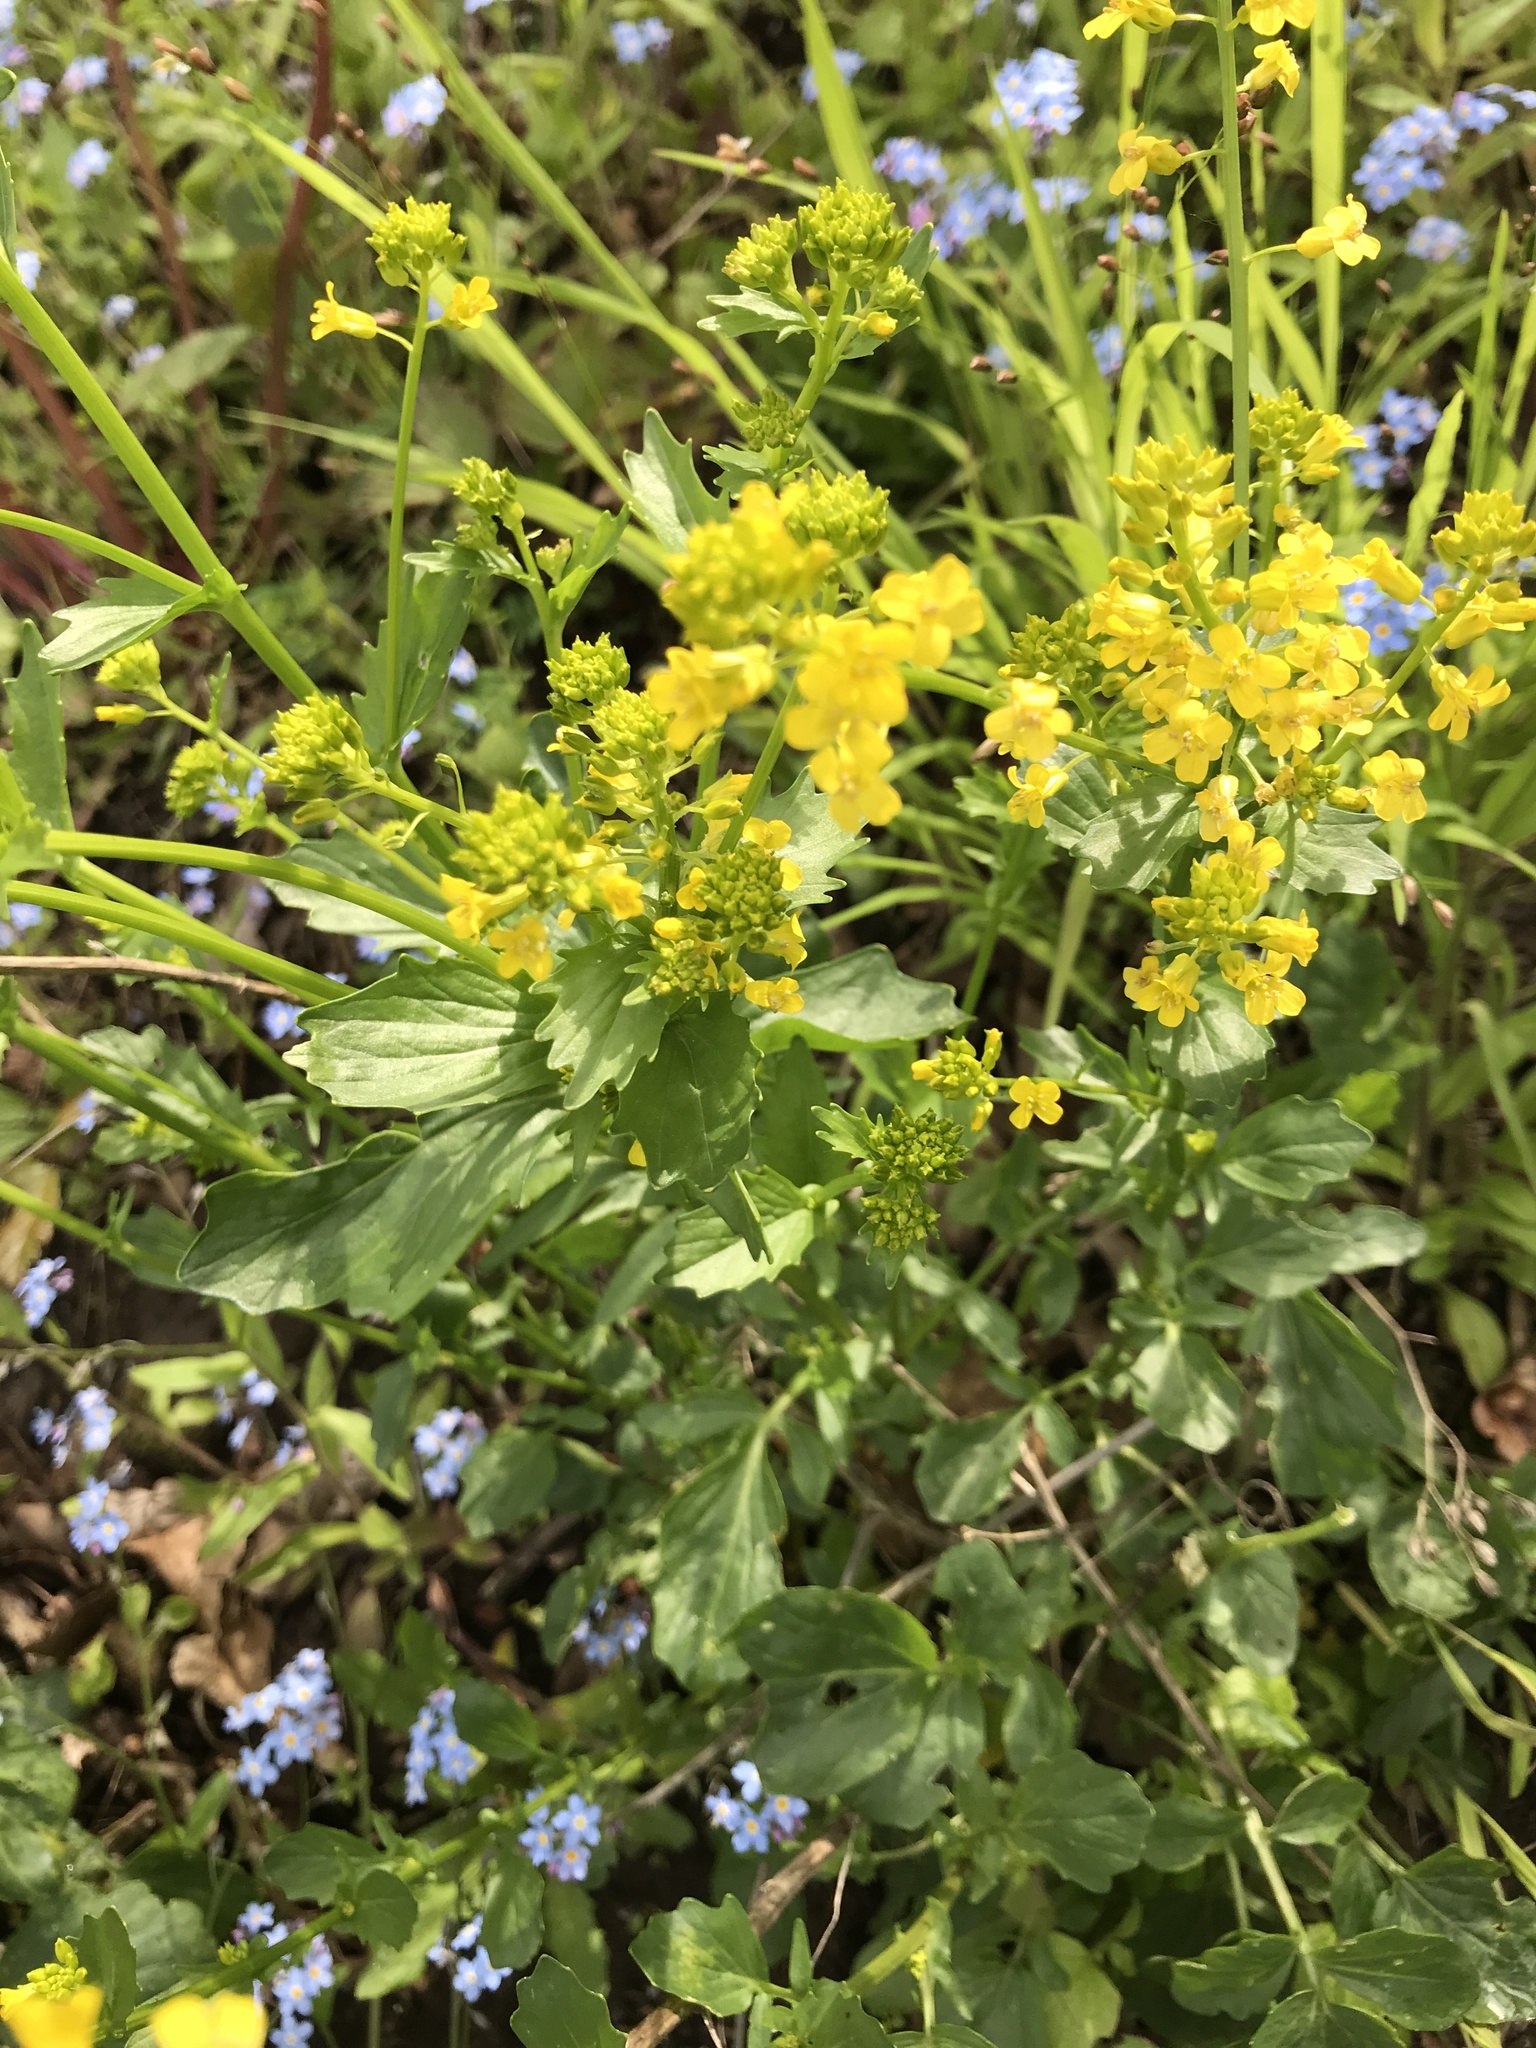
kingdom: Plantae
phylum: Tracheophyta
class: Magnoliopsida
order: Brassicales
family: Brassicaceae
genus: Barbarea
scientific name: Barbarea vulgaris
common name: Cressy-greens
